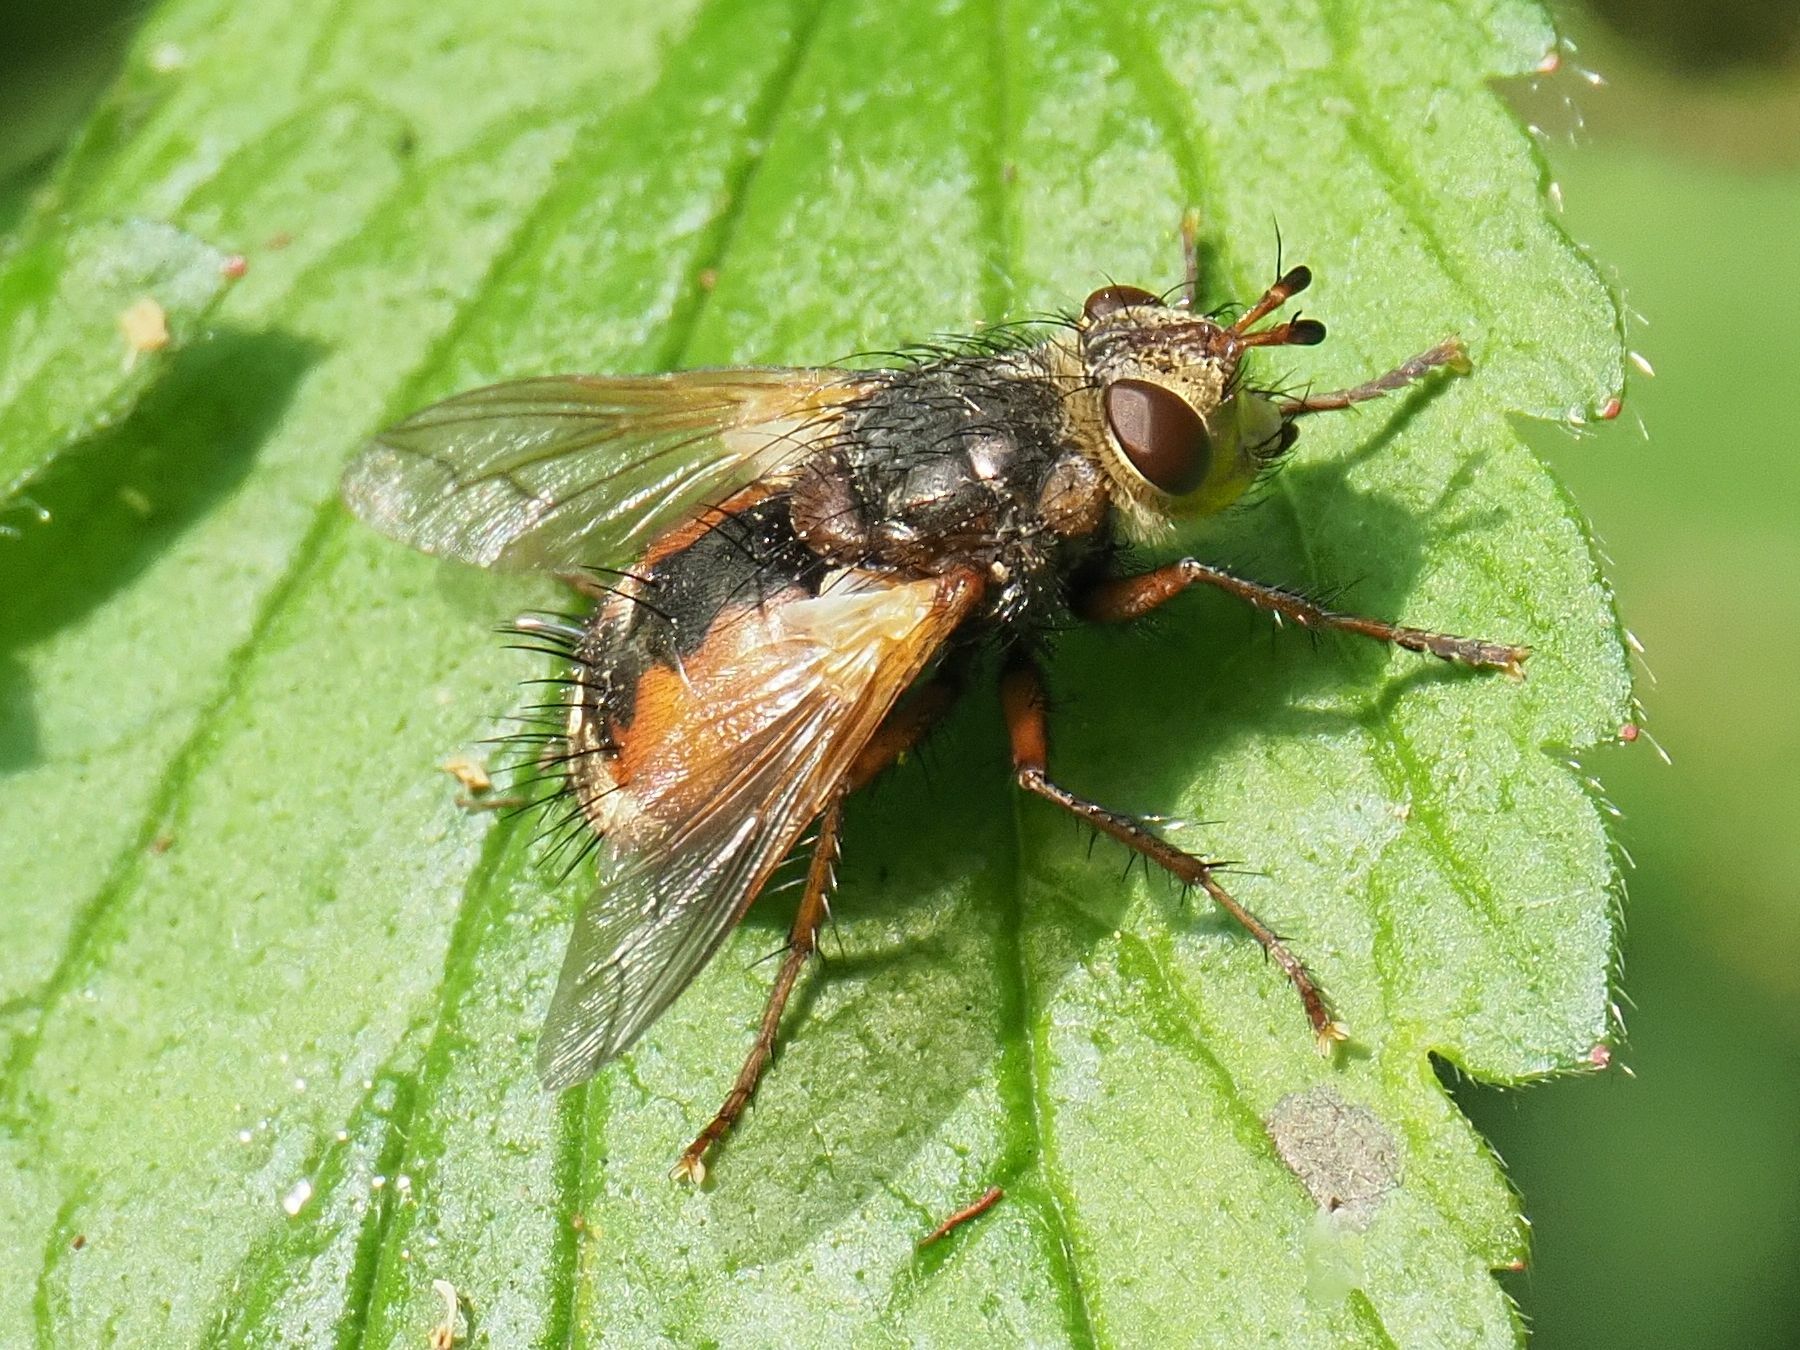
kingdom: Animalia
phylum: Arthropoda
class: Insecta
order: Diptera
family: Tachinidae
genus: Tachina
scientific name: Tachina fera
